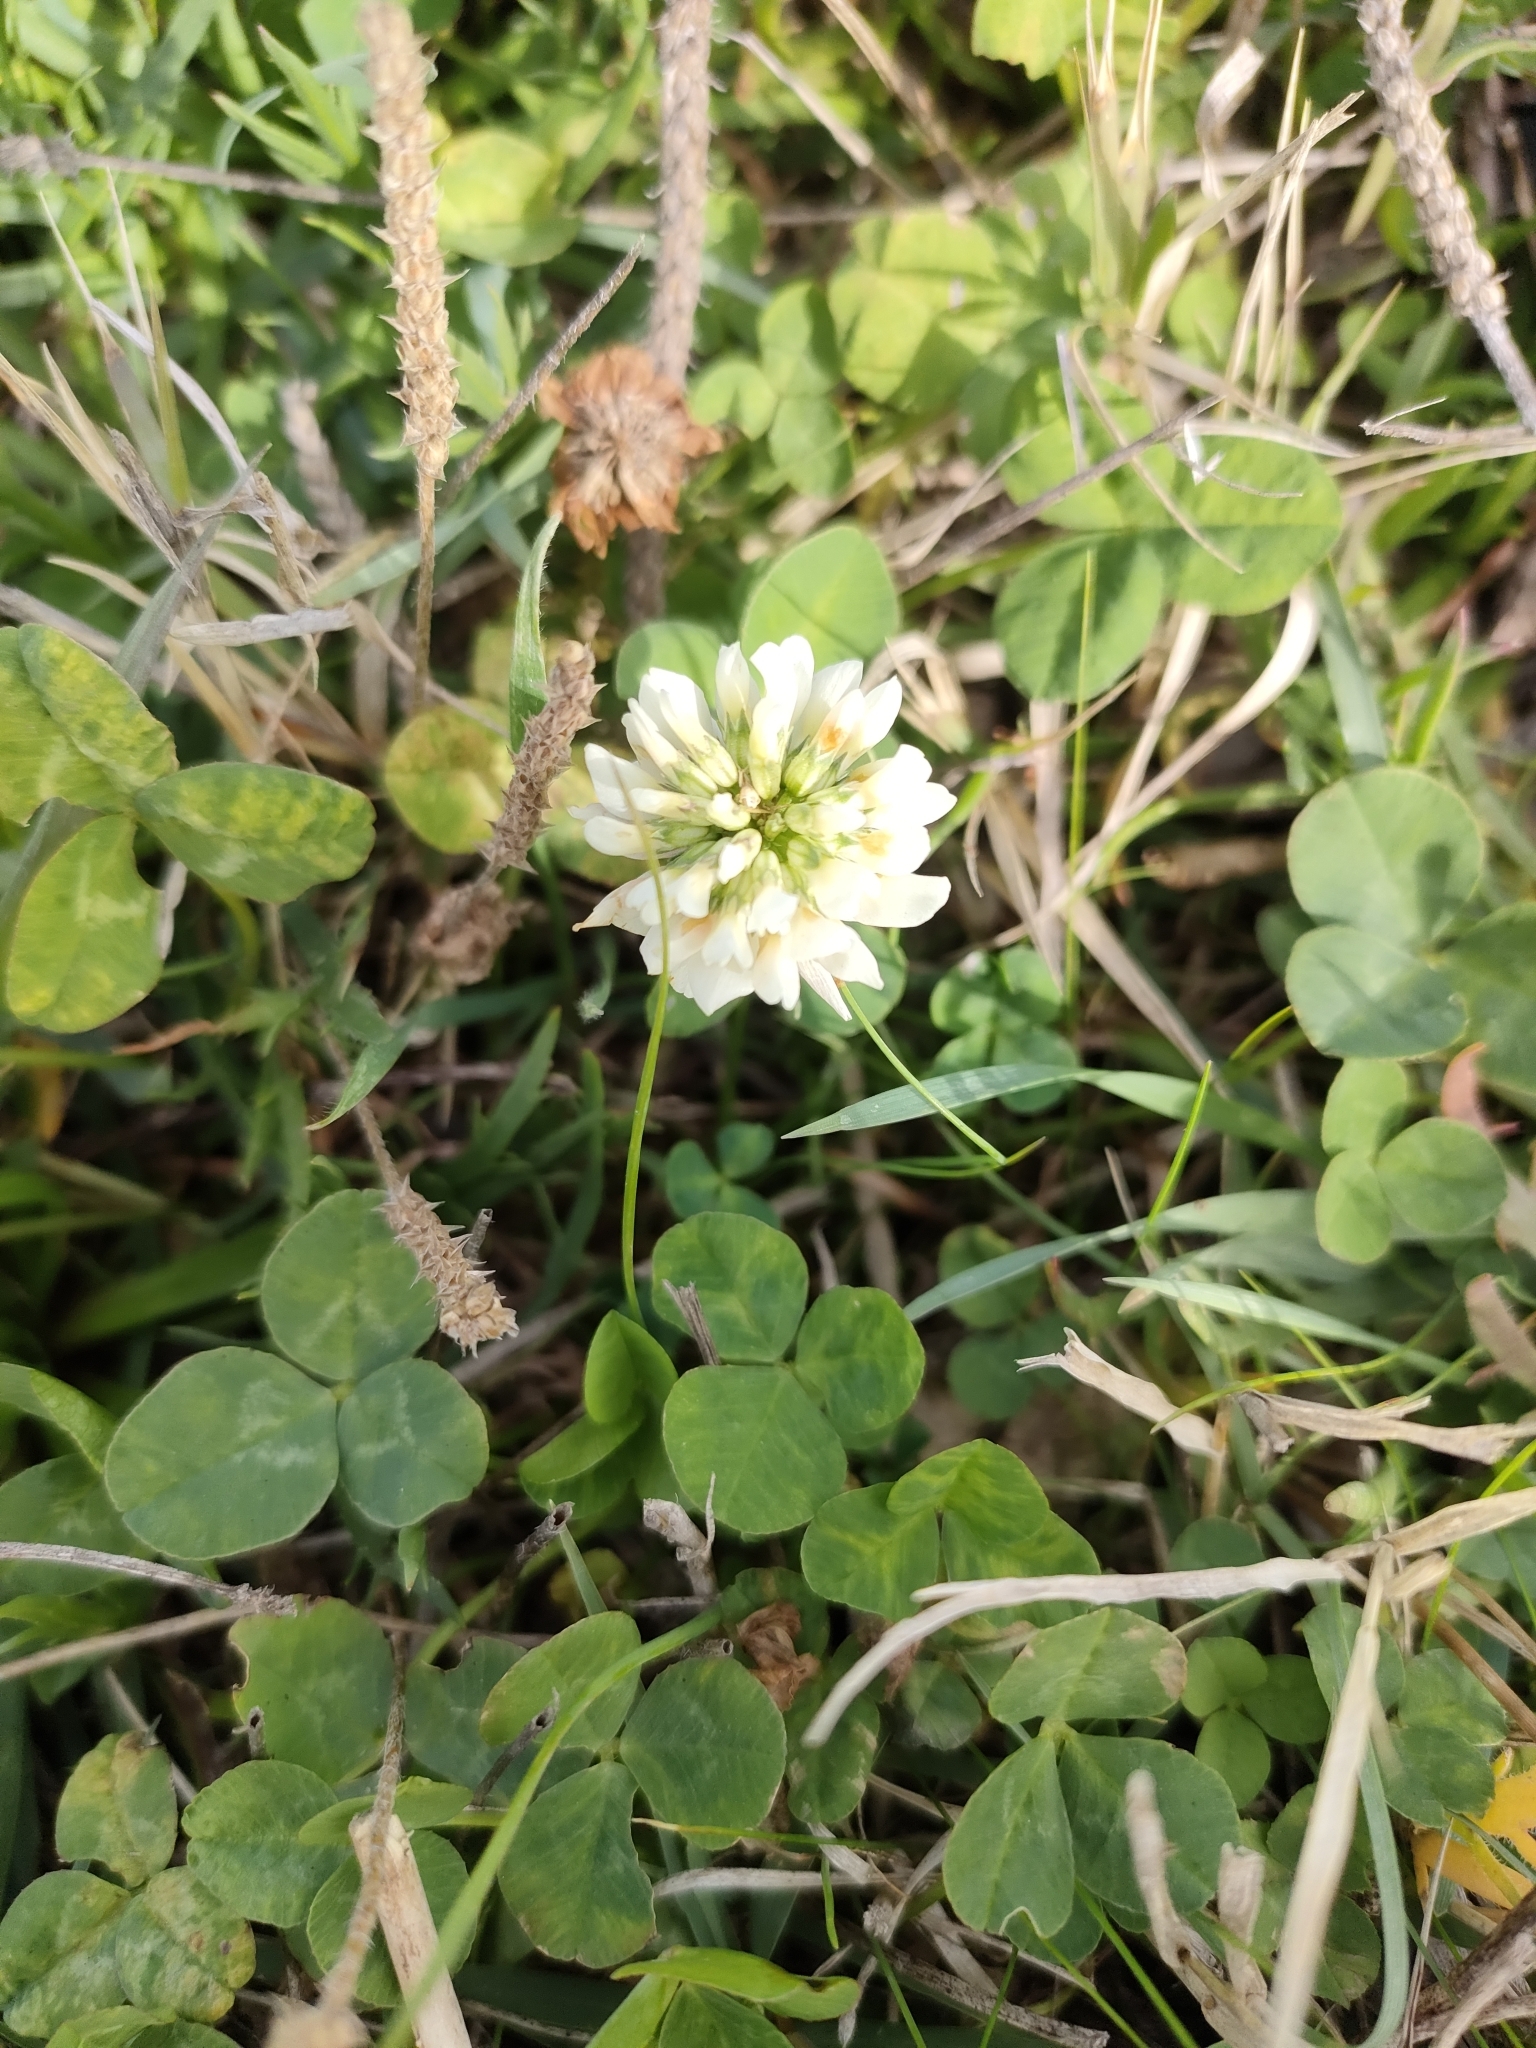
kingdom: Plantae
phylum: Tracheophyta
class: Magnoliopsida
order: Fabales
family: Fabaceae
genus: Trifolium
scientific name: Trifolium repens
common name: White clover
